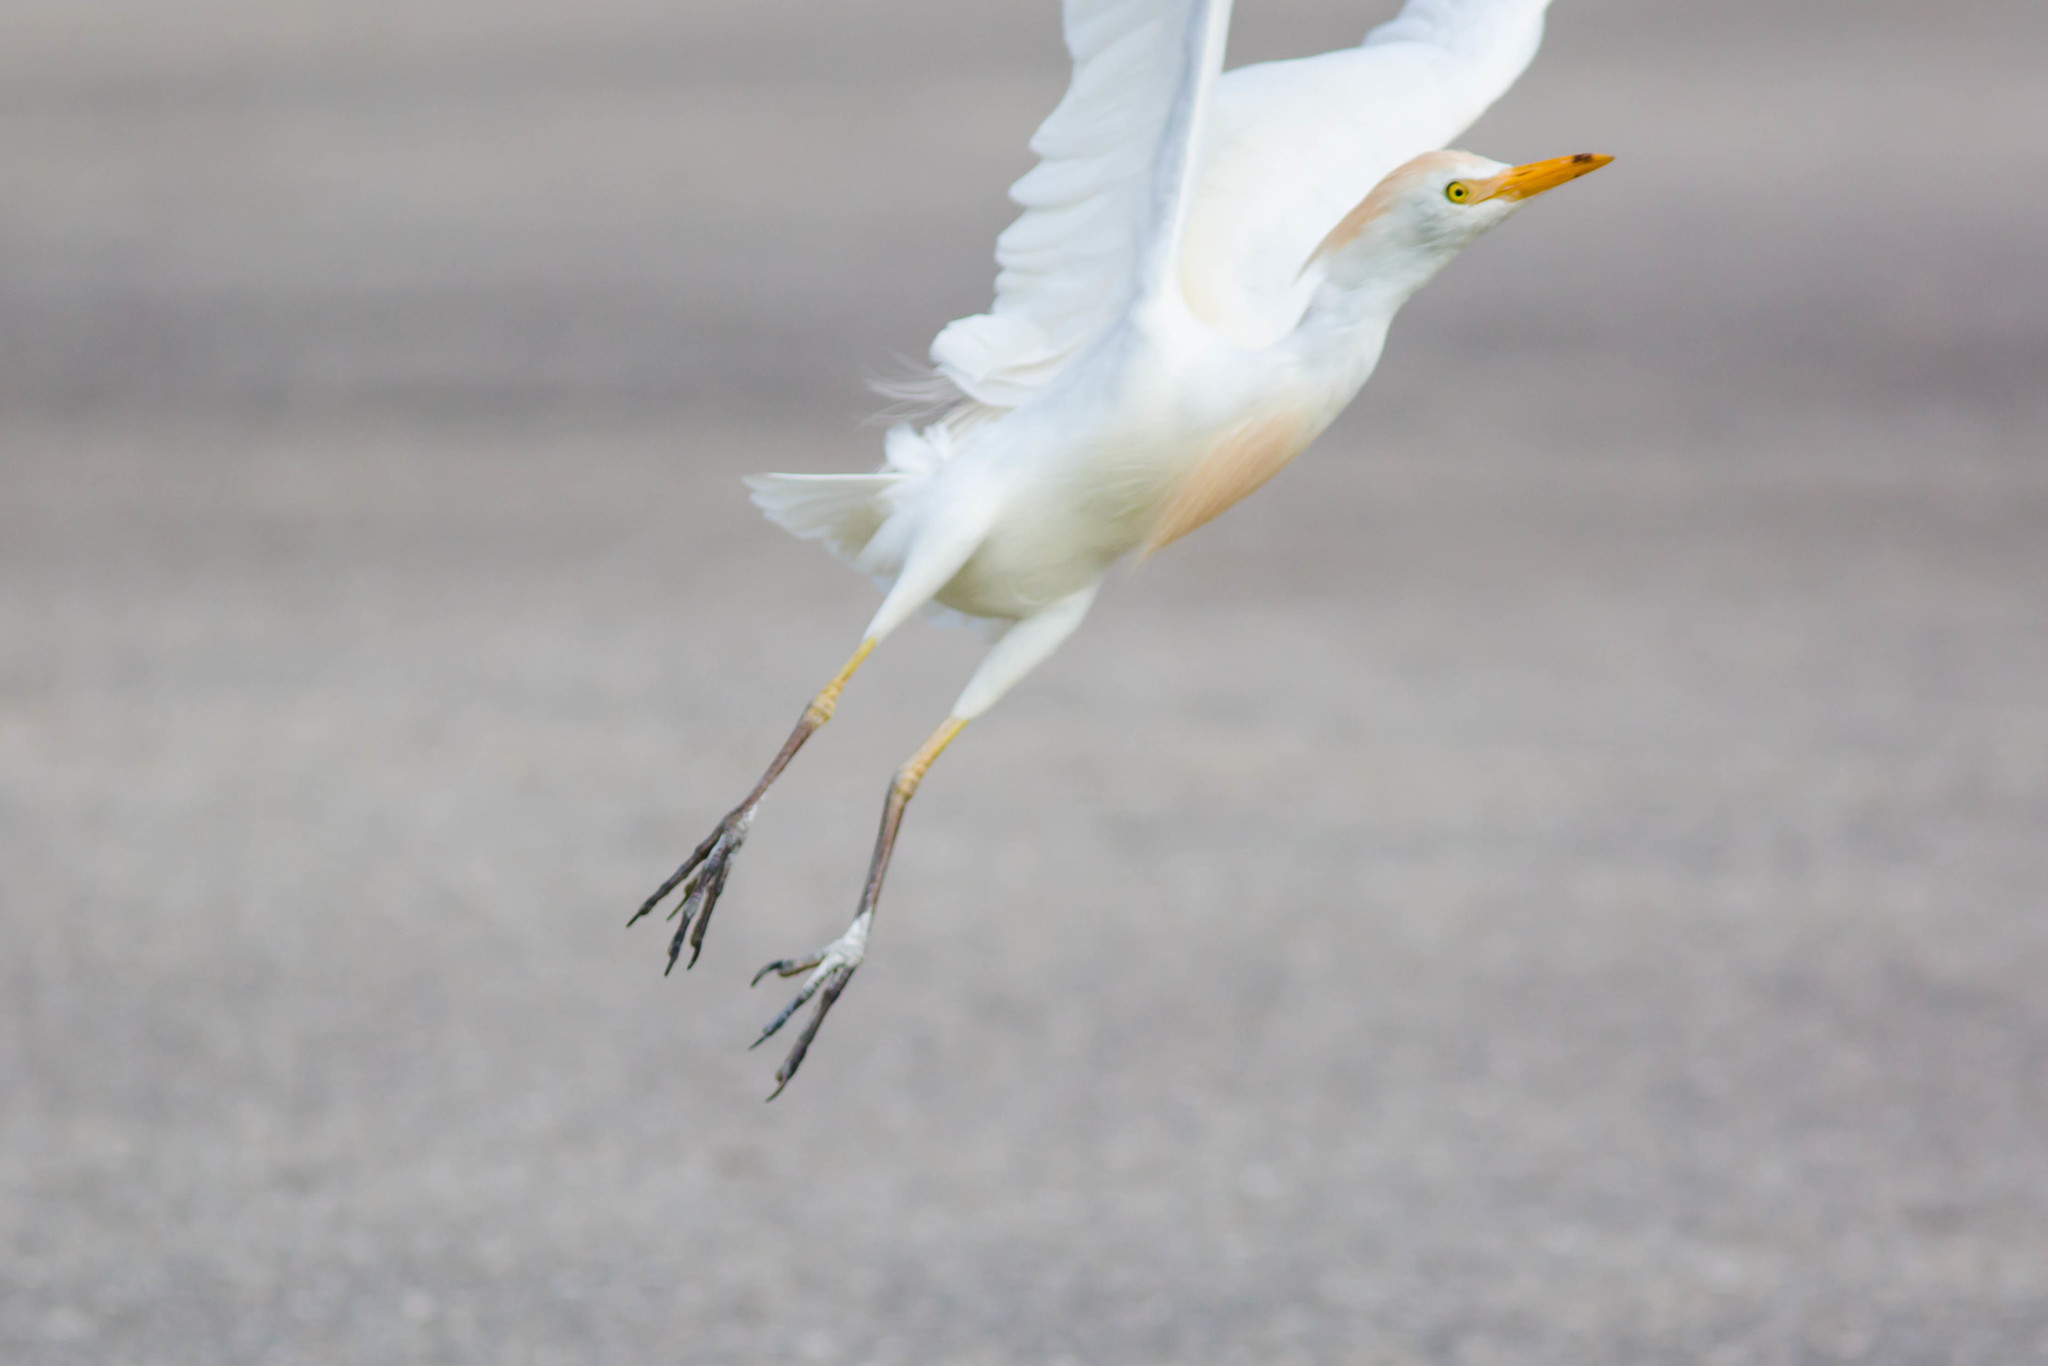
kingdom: Animalia
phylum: Chordata
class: Aves
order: Pelecaniformes
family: Ardeidae
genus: Bubulcus
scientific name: Bubulcus ibis
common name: Cattle egret
